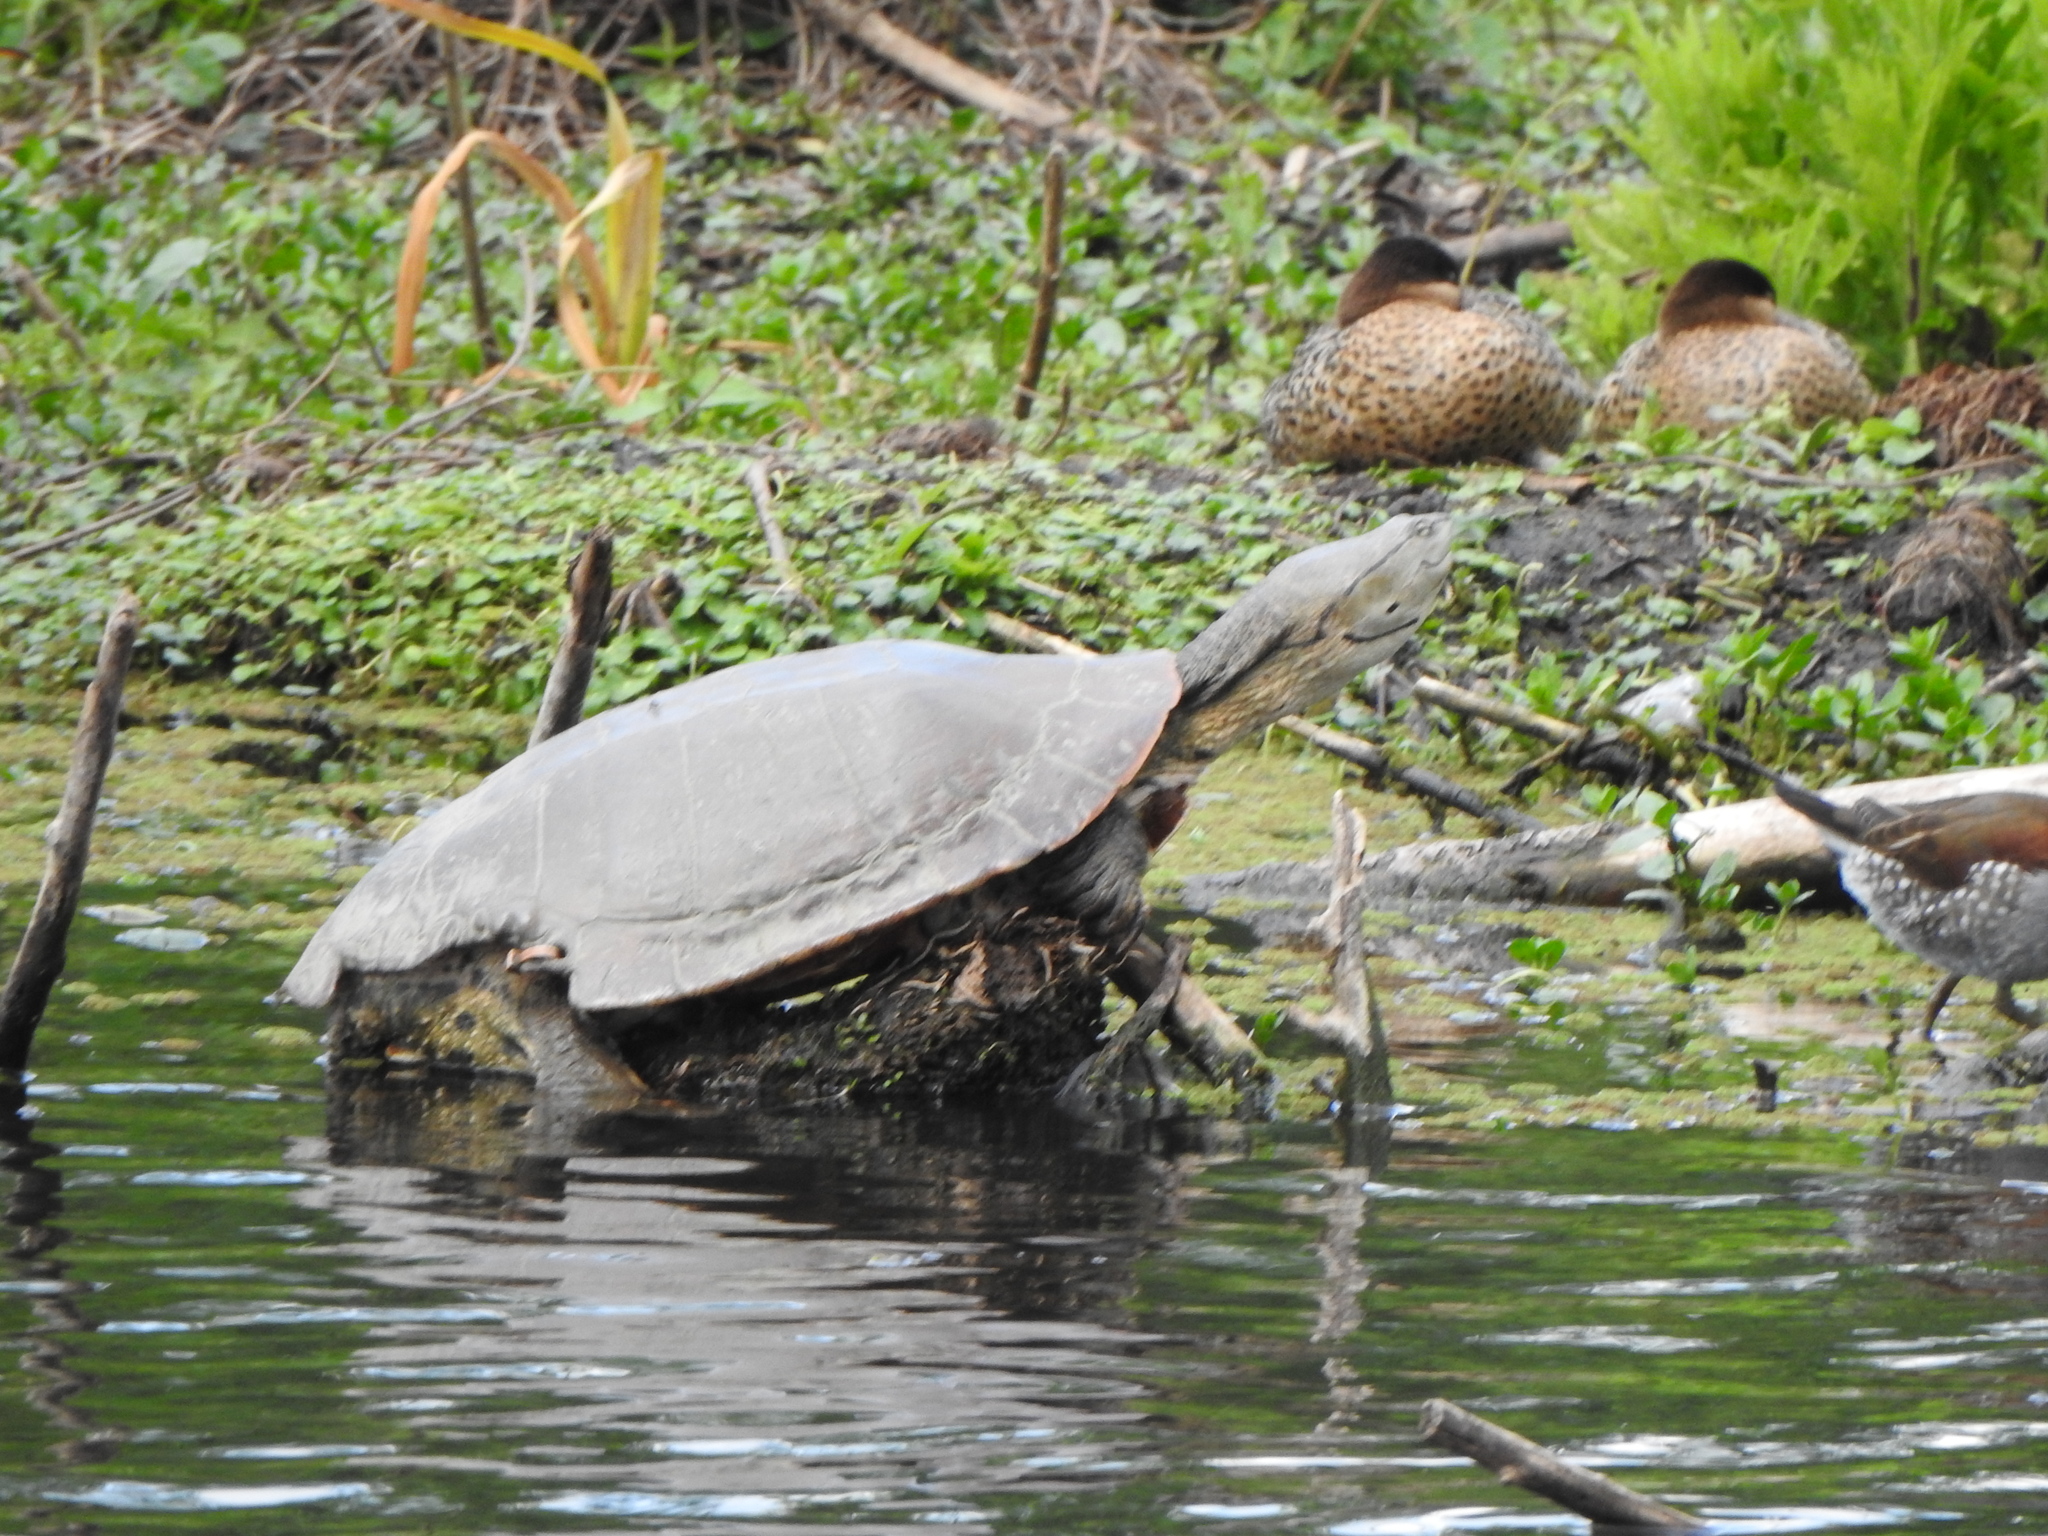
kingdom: Animalia
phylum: Chordata
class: Testudines
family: Chelidae
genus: Phrynops
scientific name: Phrynops hilarii
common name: Side-necked turtle of saint hillaire
